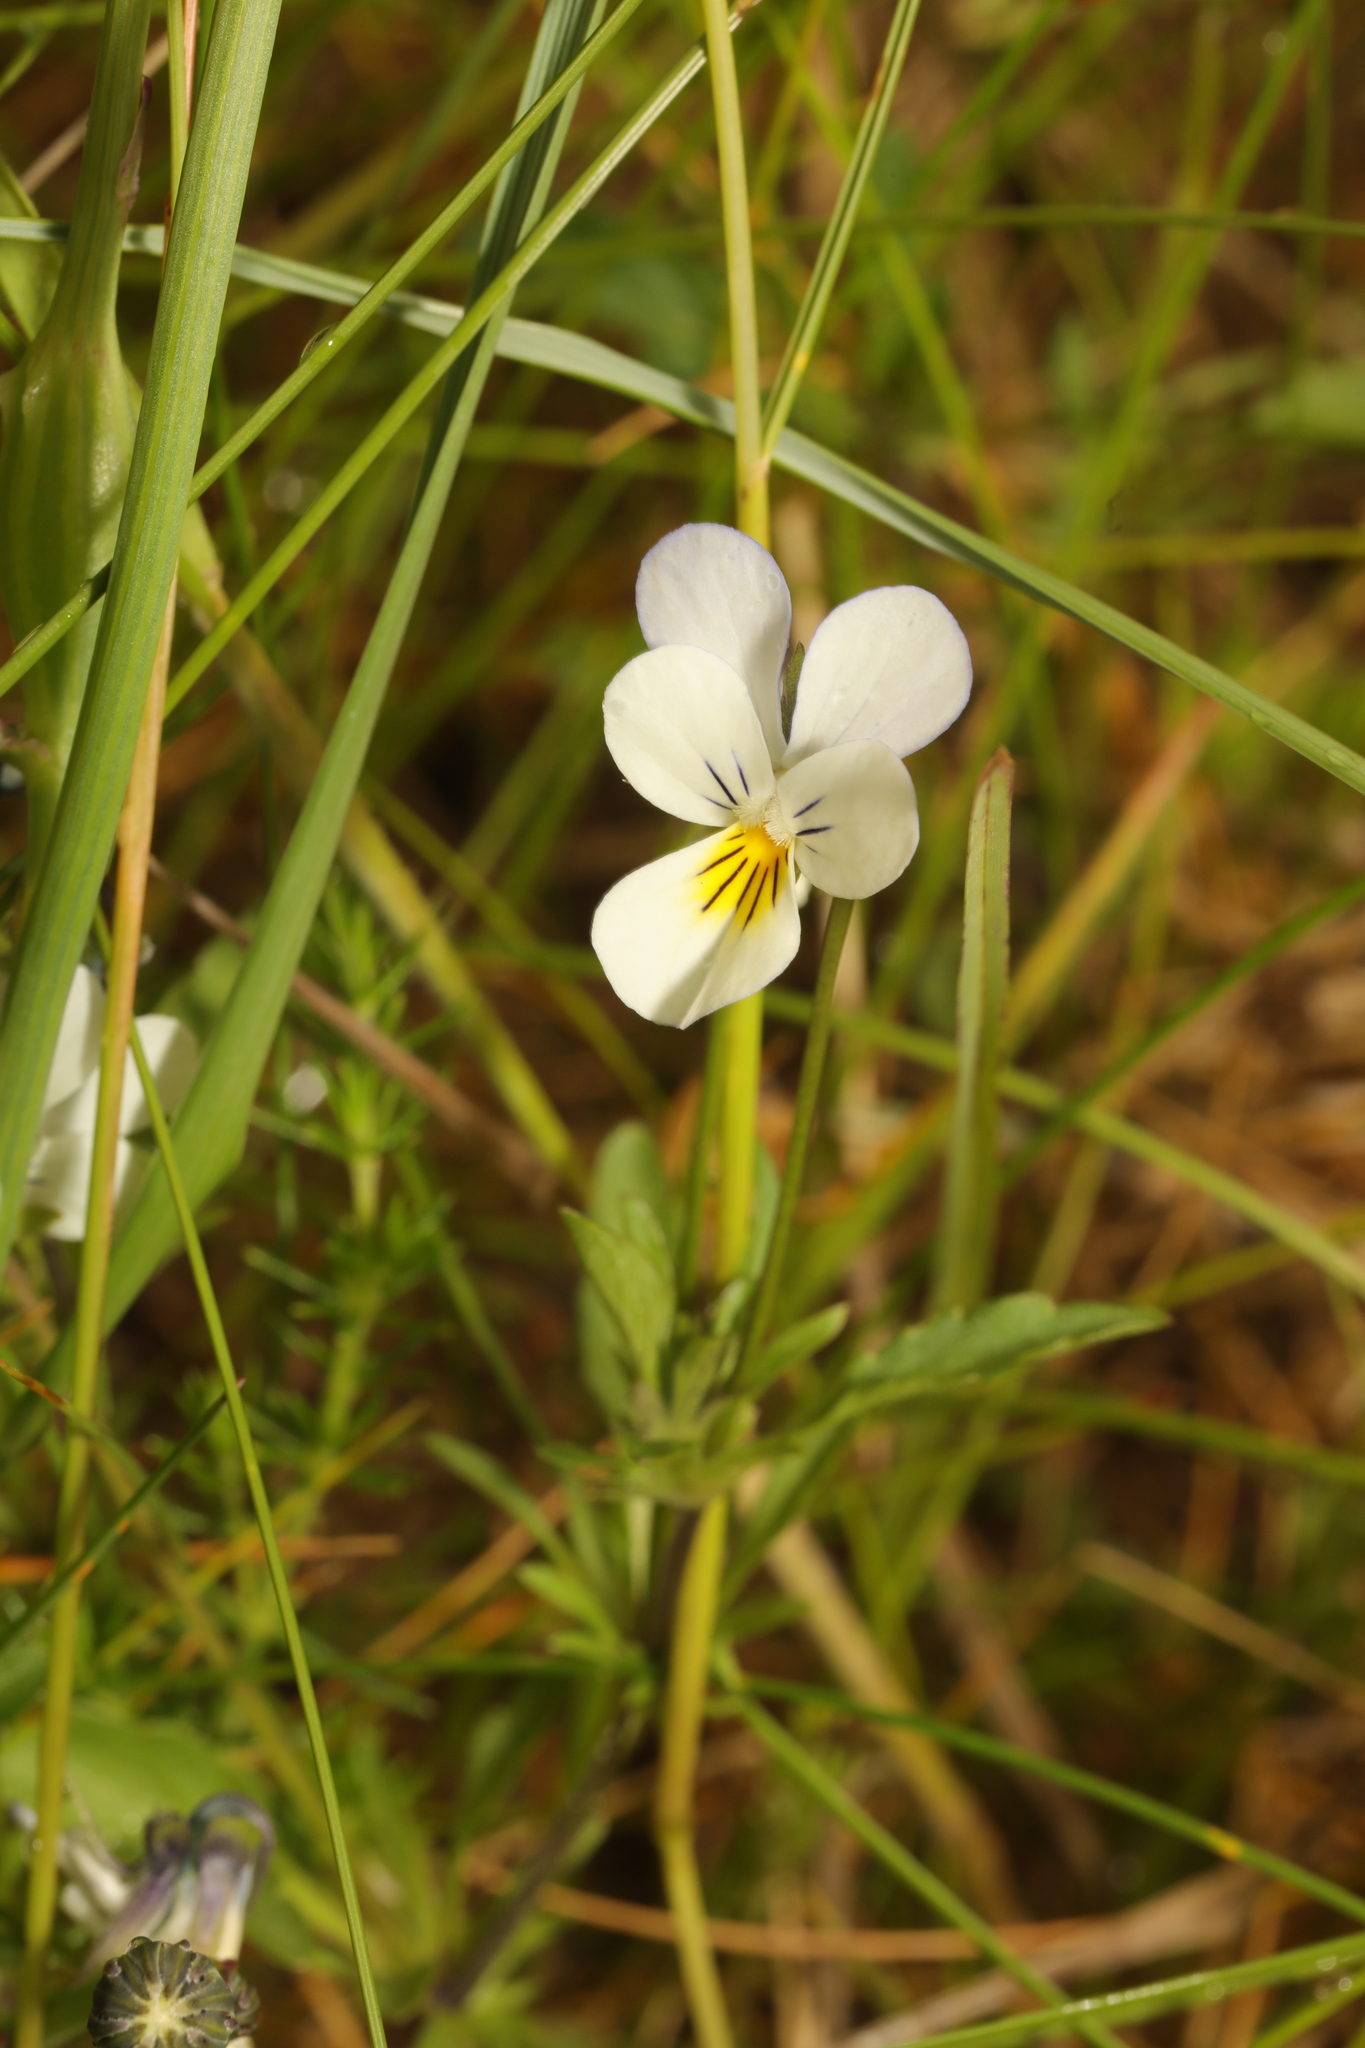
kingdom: Plantae
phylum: Tracheophyta
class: Magnoliopsida
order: Malpighiales
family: Violaceae
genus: Viola
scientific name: Viola tricolor
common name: Pansy
